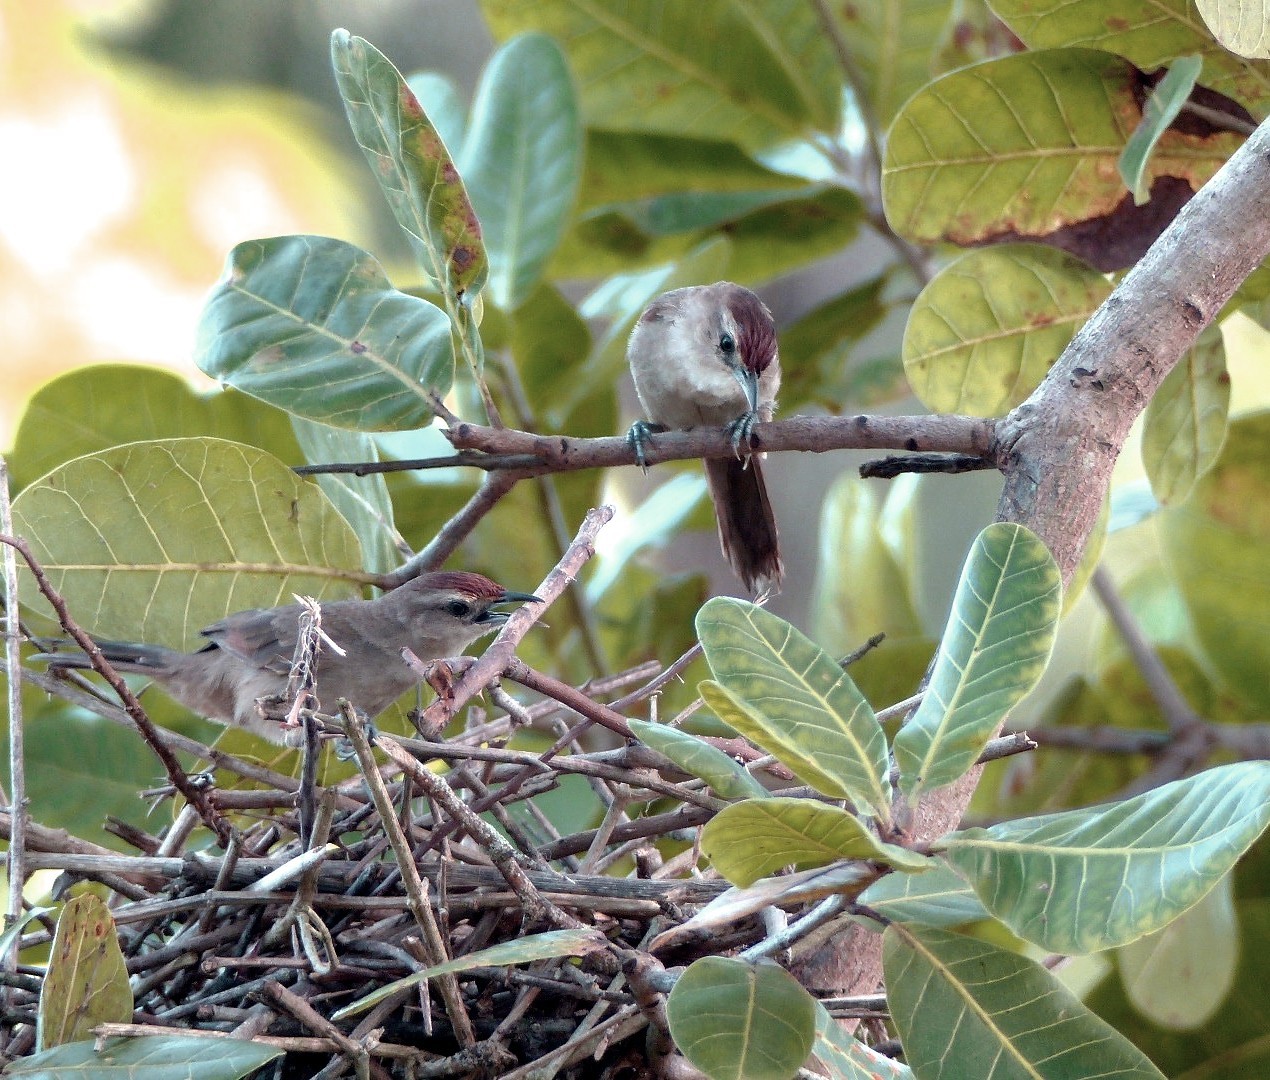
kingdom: Animalia
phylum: Chordata
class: Aves
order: Passeriformes
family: Furnariidae
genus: Phacellodomus
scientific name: Phacellodomus rufifrons
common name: Rufous-fronted thornbird
